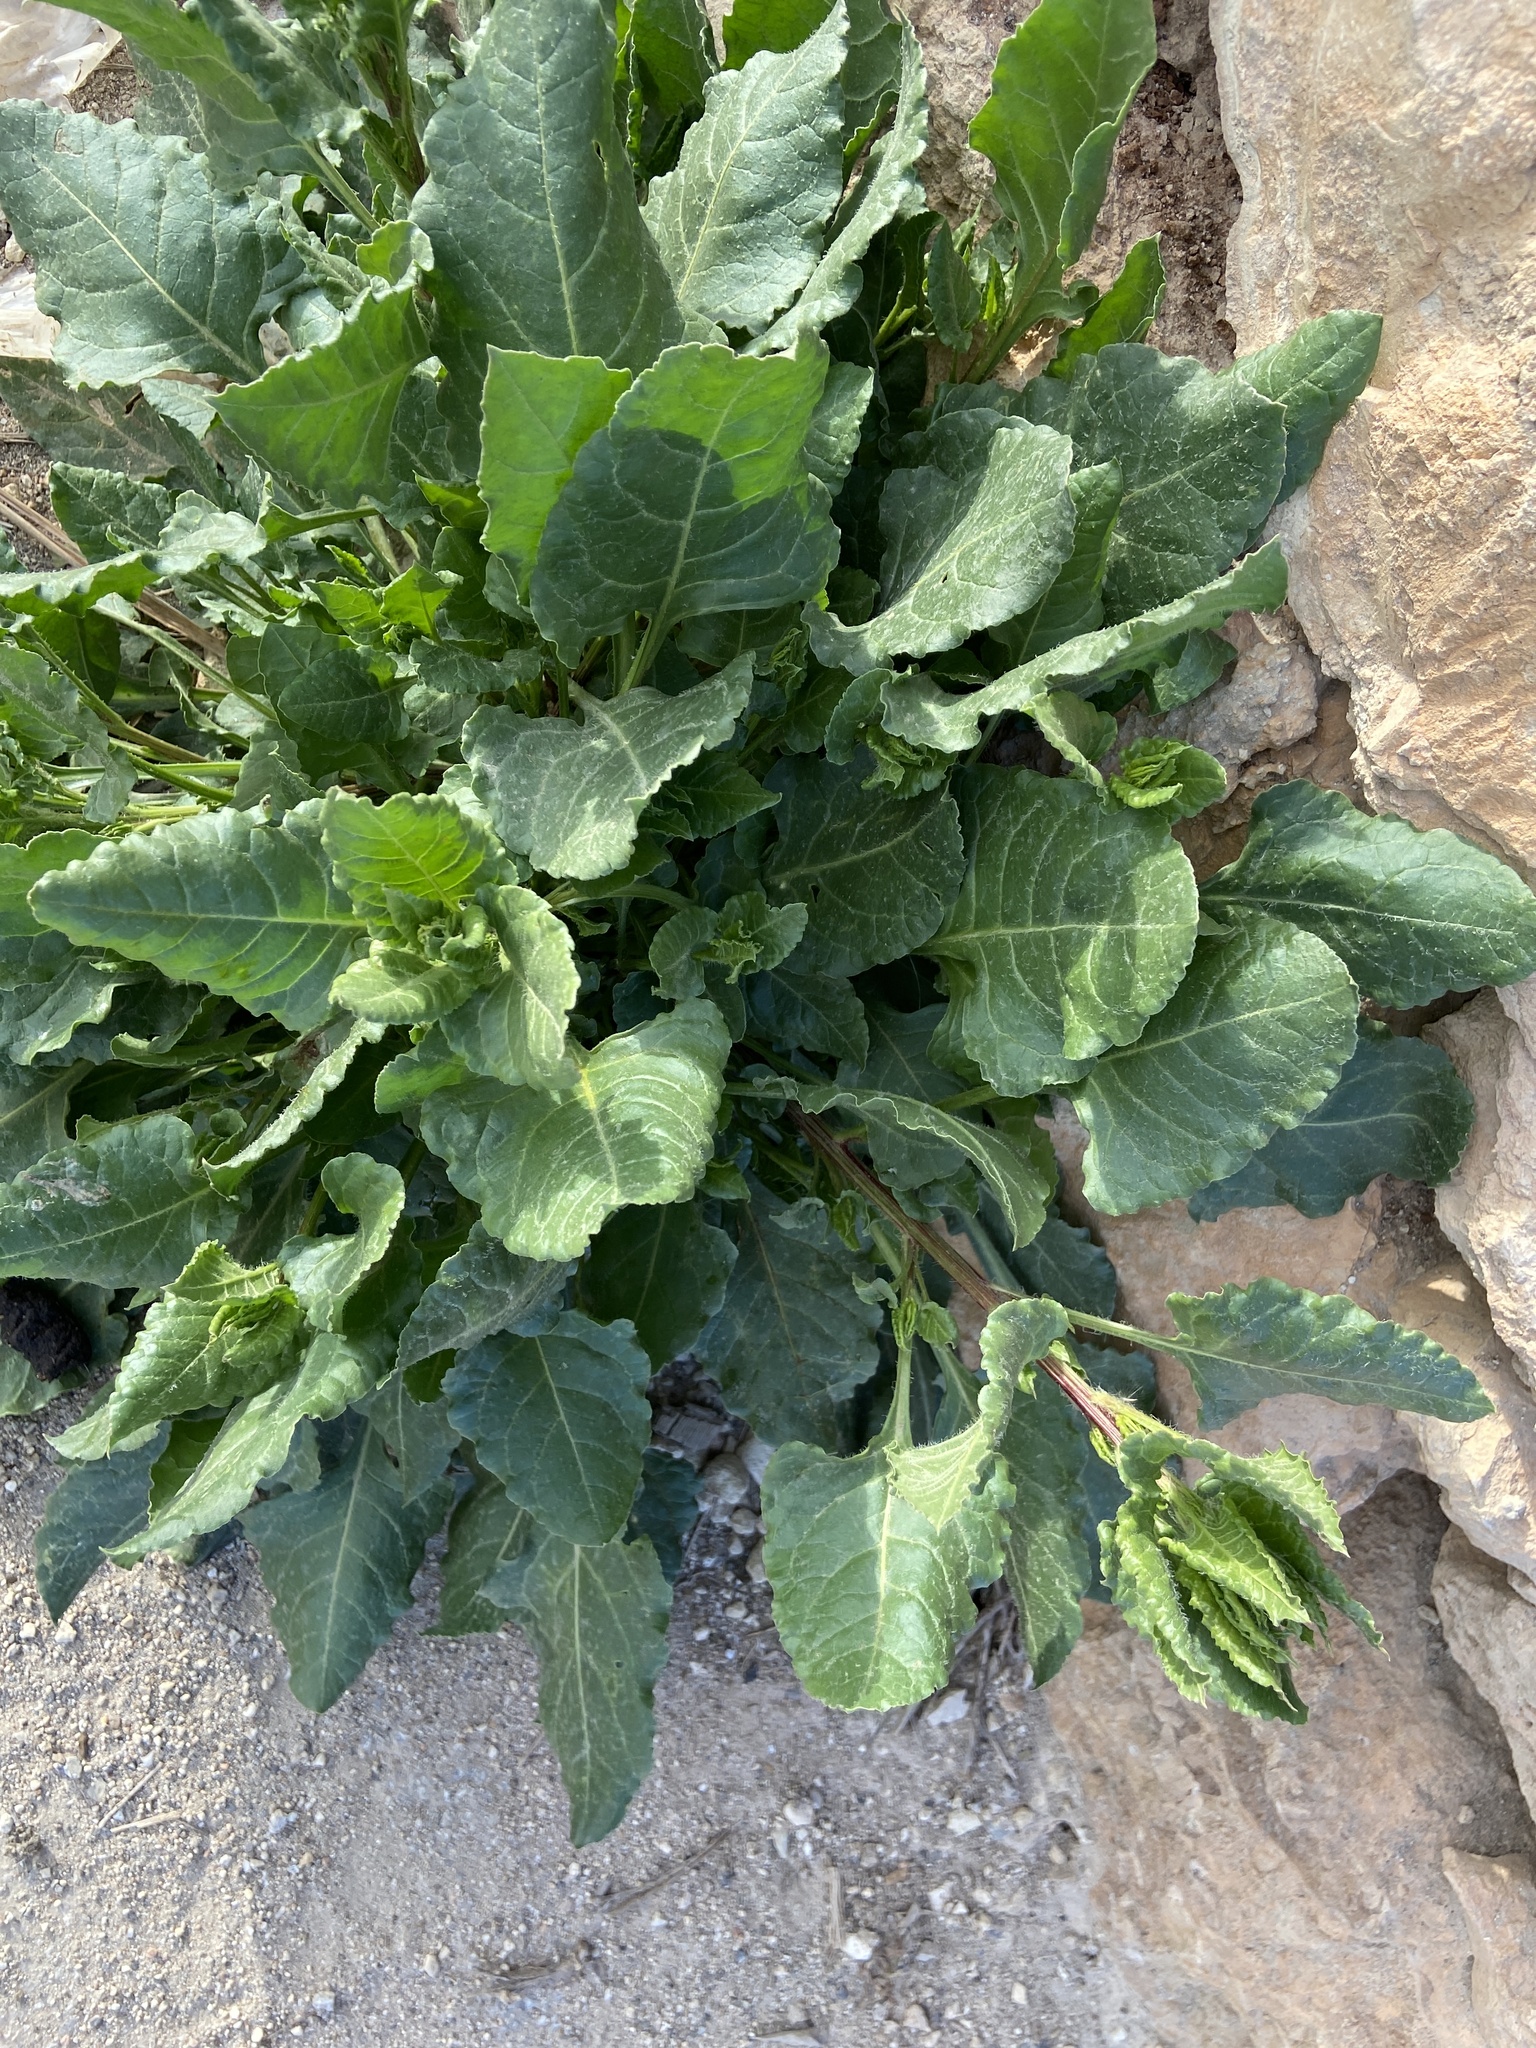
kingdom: Plantae
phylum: Tracheophyta
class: Magnoliopsida
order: Caryophyllales
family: Amaranthaceae
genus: Beta
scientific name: Beta vulgaris
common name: Beet
